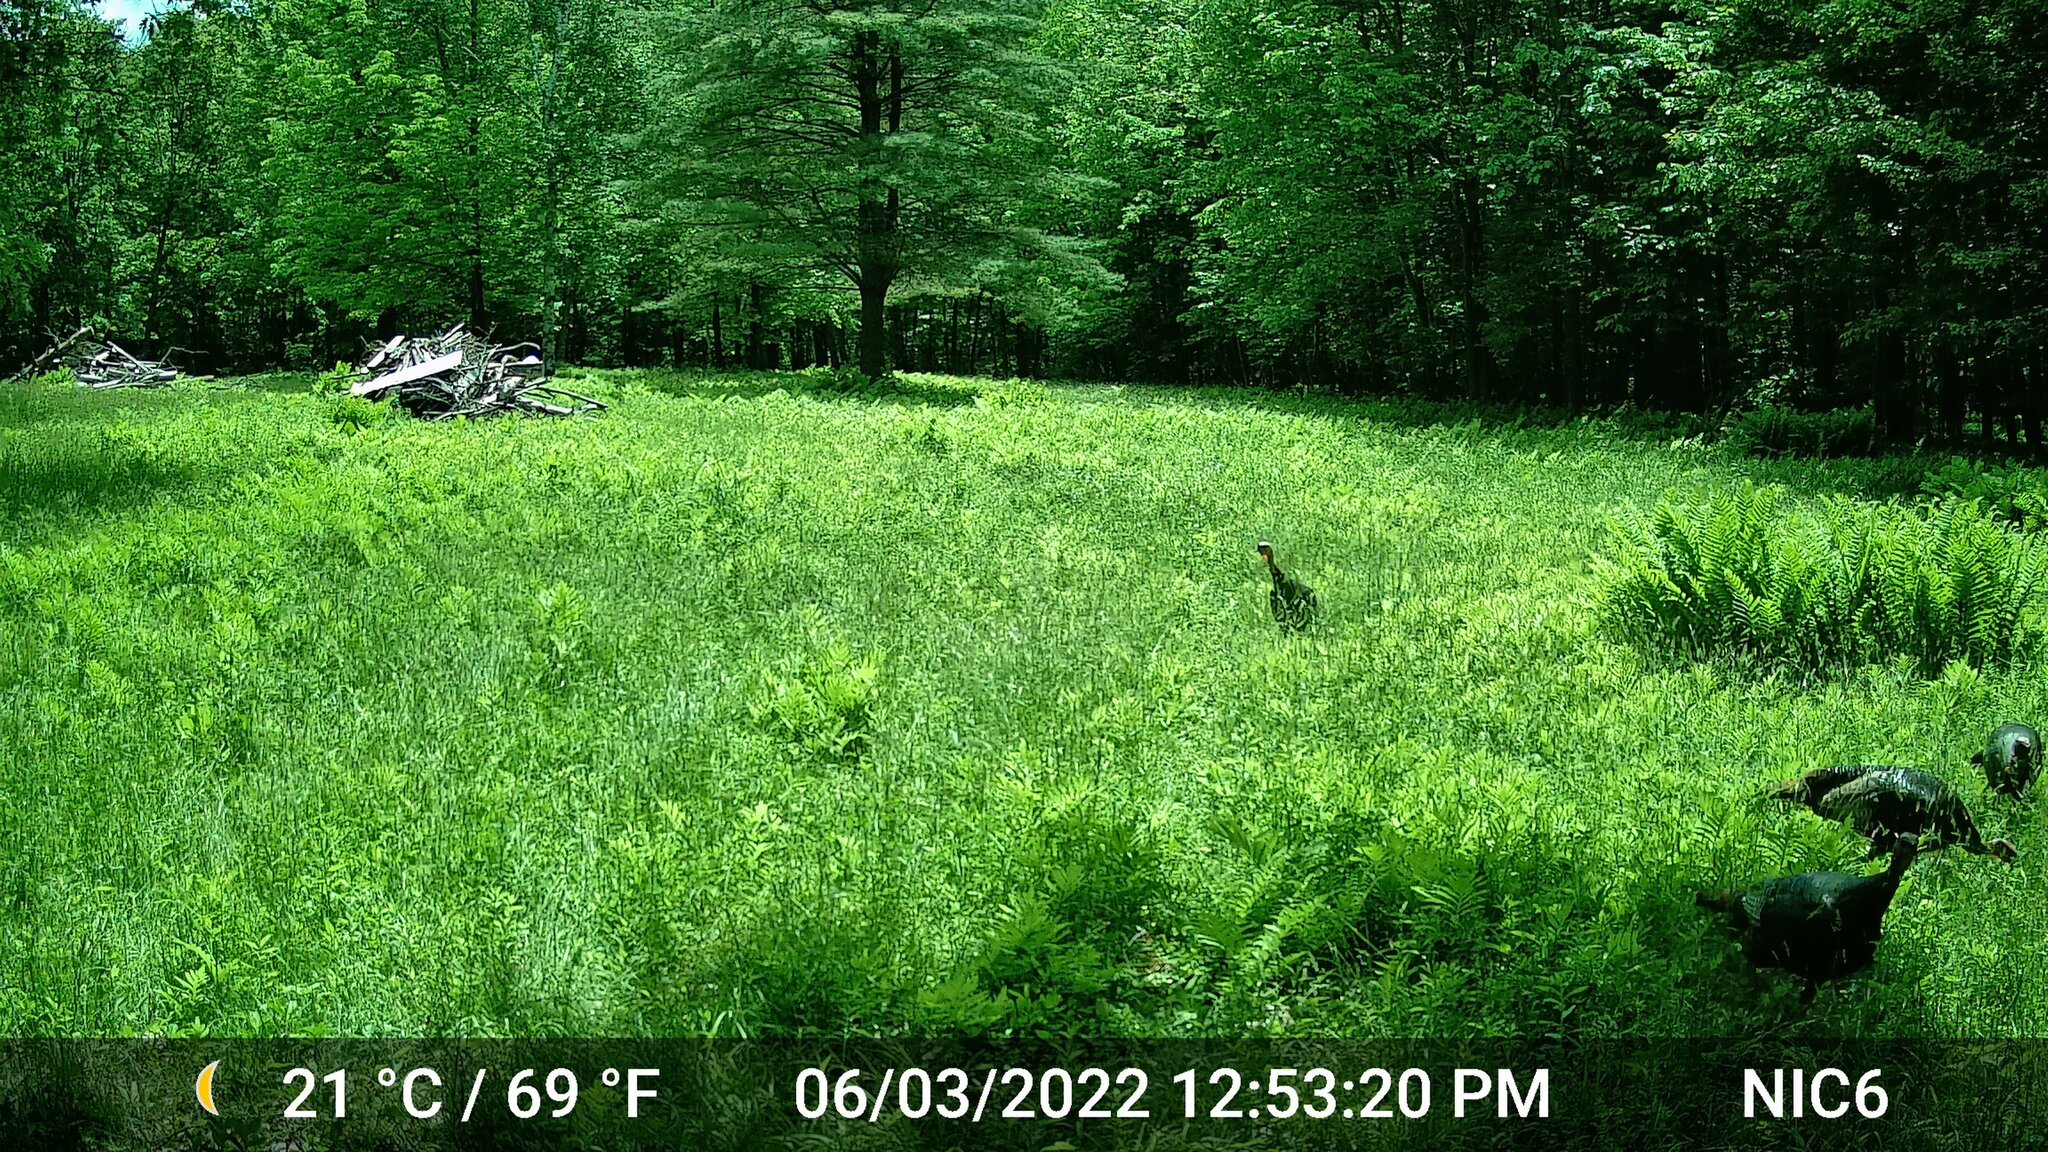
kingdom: Animalia
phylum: Chordata
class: Aves
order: Galliformes
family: Phasianidae
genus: Meleagris
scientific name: Meleagris gallopavo
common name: Wild turkey
